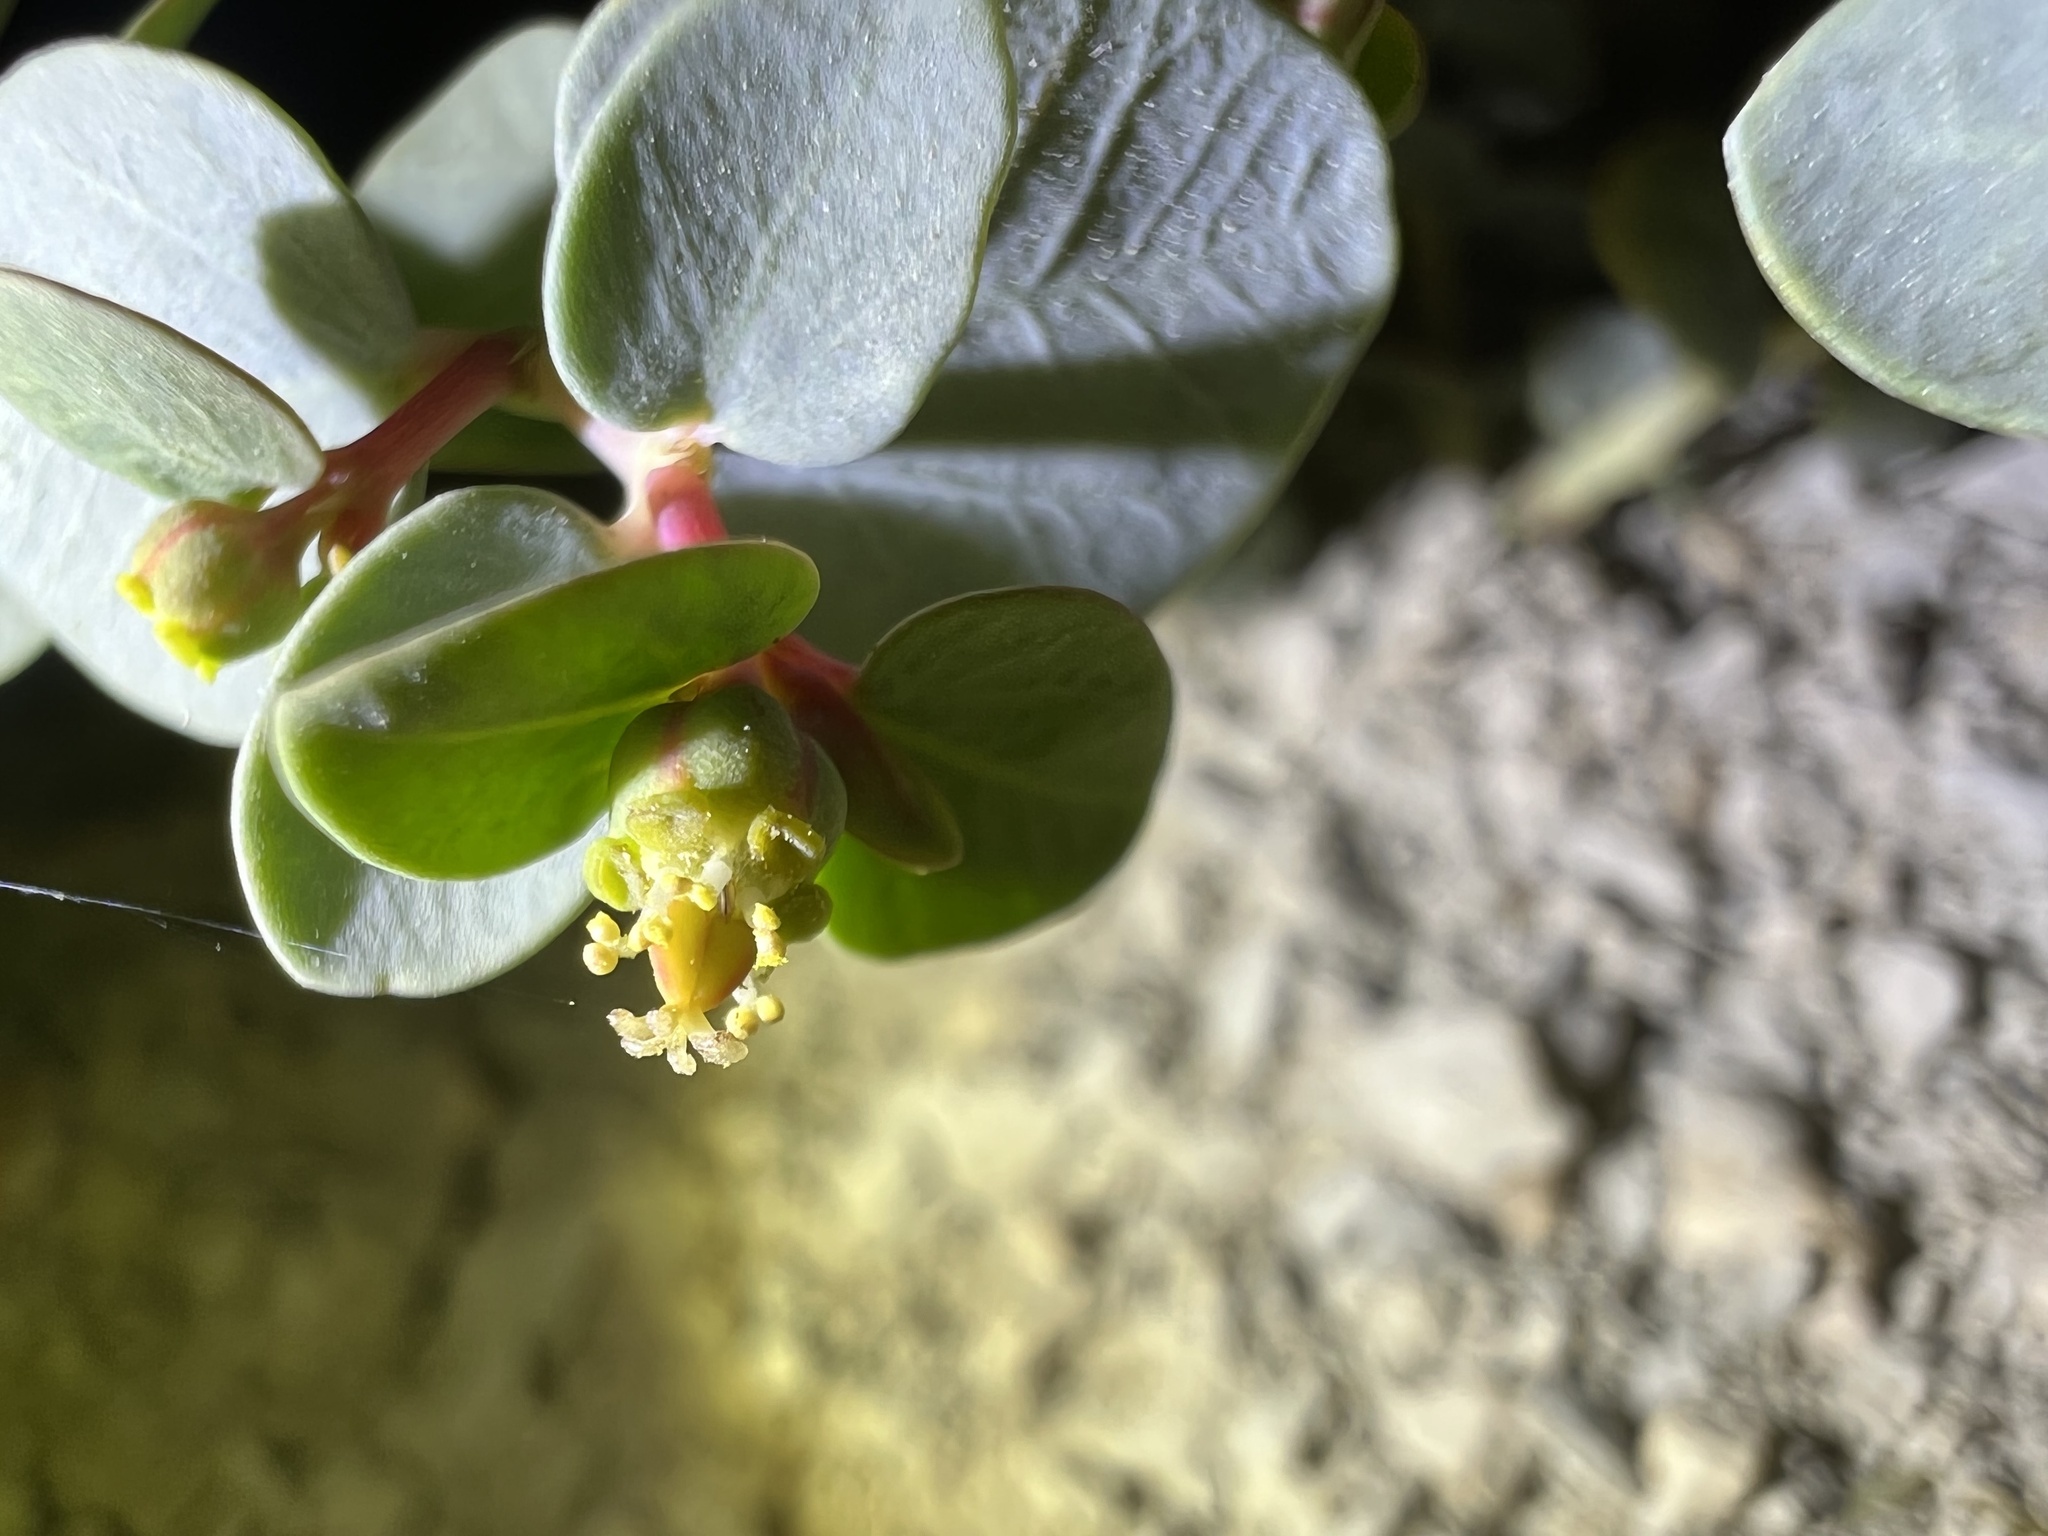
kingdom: Plantae
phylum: Tracheophyta
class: Magnoliopsida
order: Malpighiales
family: Euphorbiaceae
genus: Euphorbia
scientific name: Euphorbia perennans
